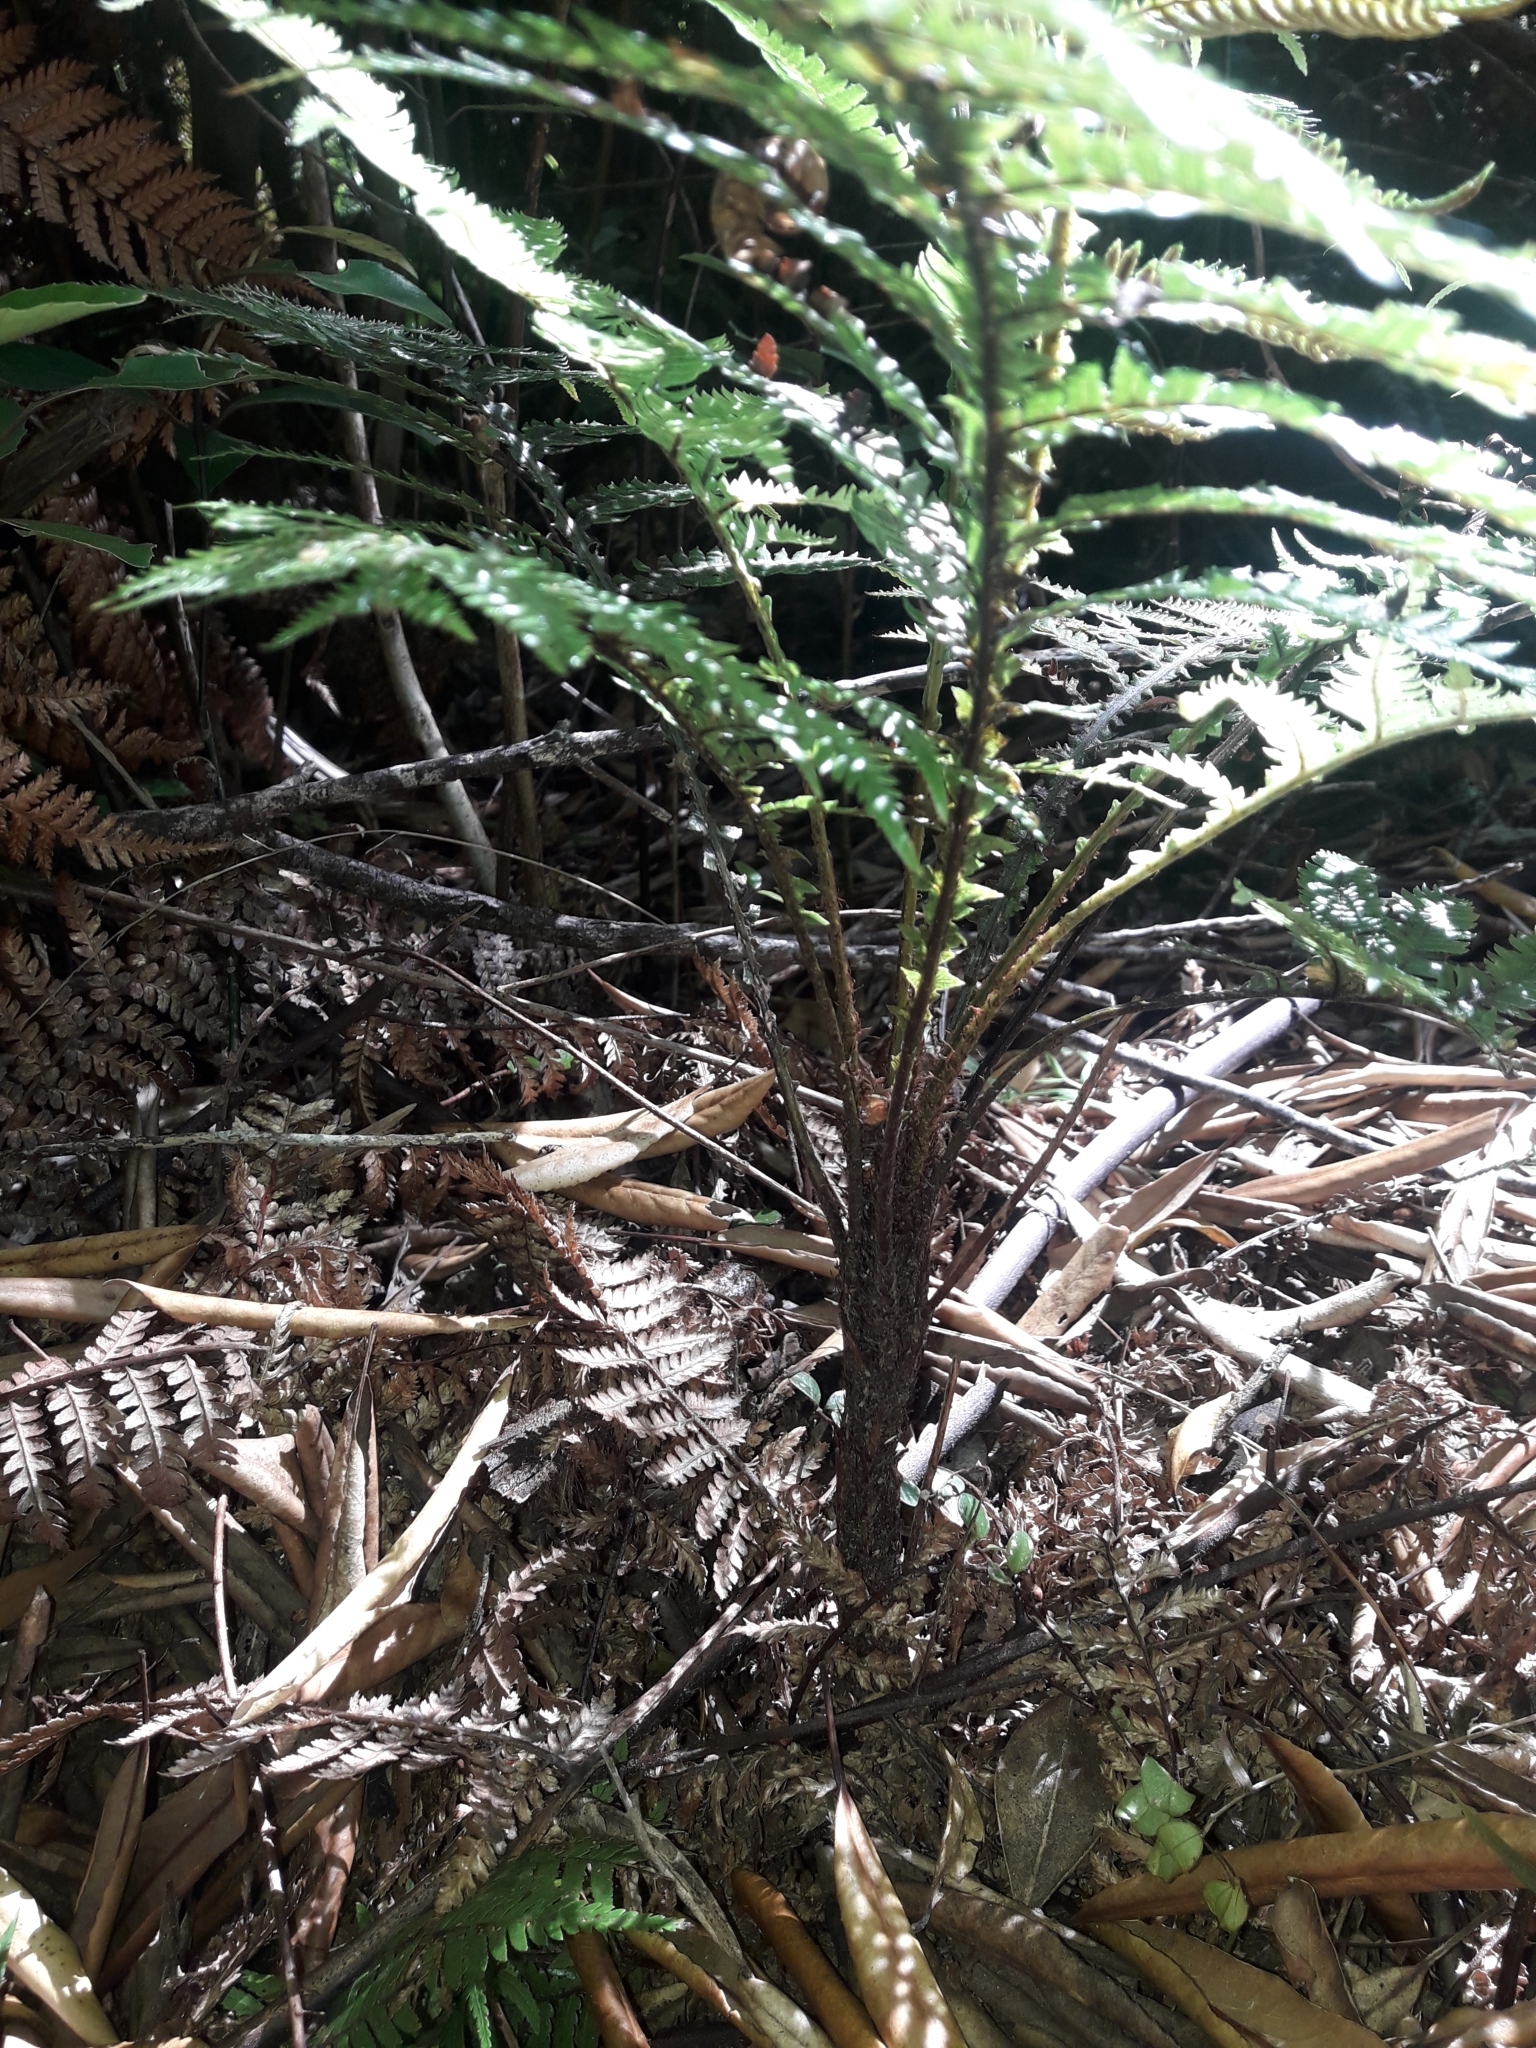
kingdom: Plantae
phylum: Tracheophyta
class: Polypodiopsida
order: Polypodiales
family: Blechnaceae
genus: Diploblechnum
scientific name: Diploblechnum fraseri
